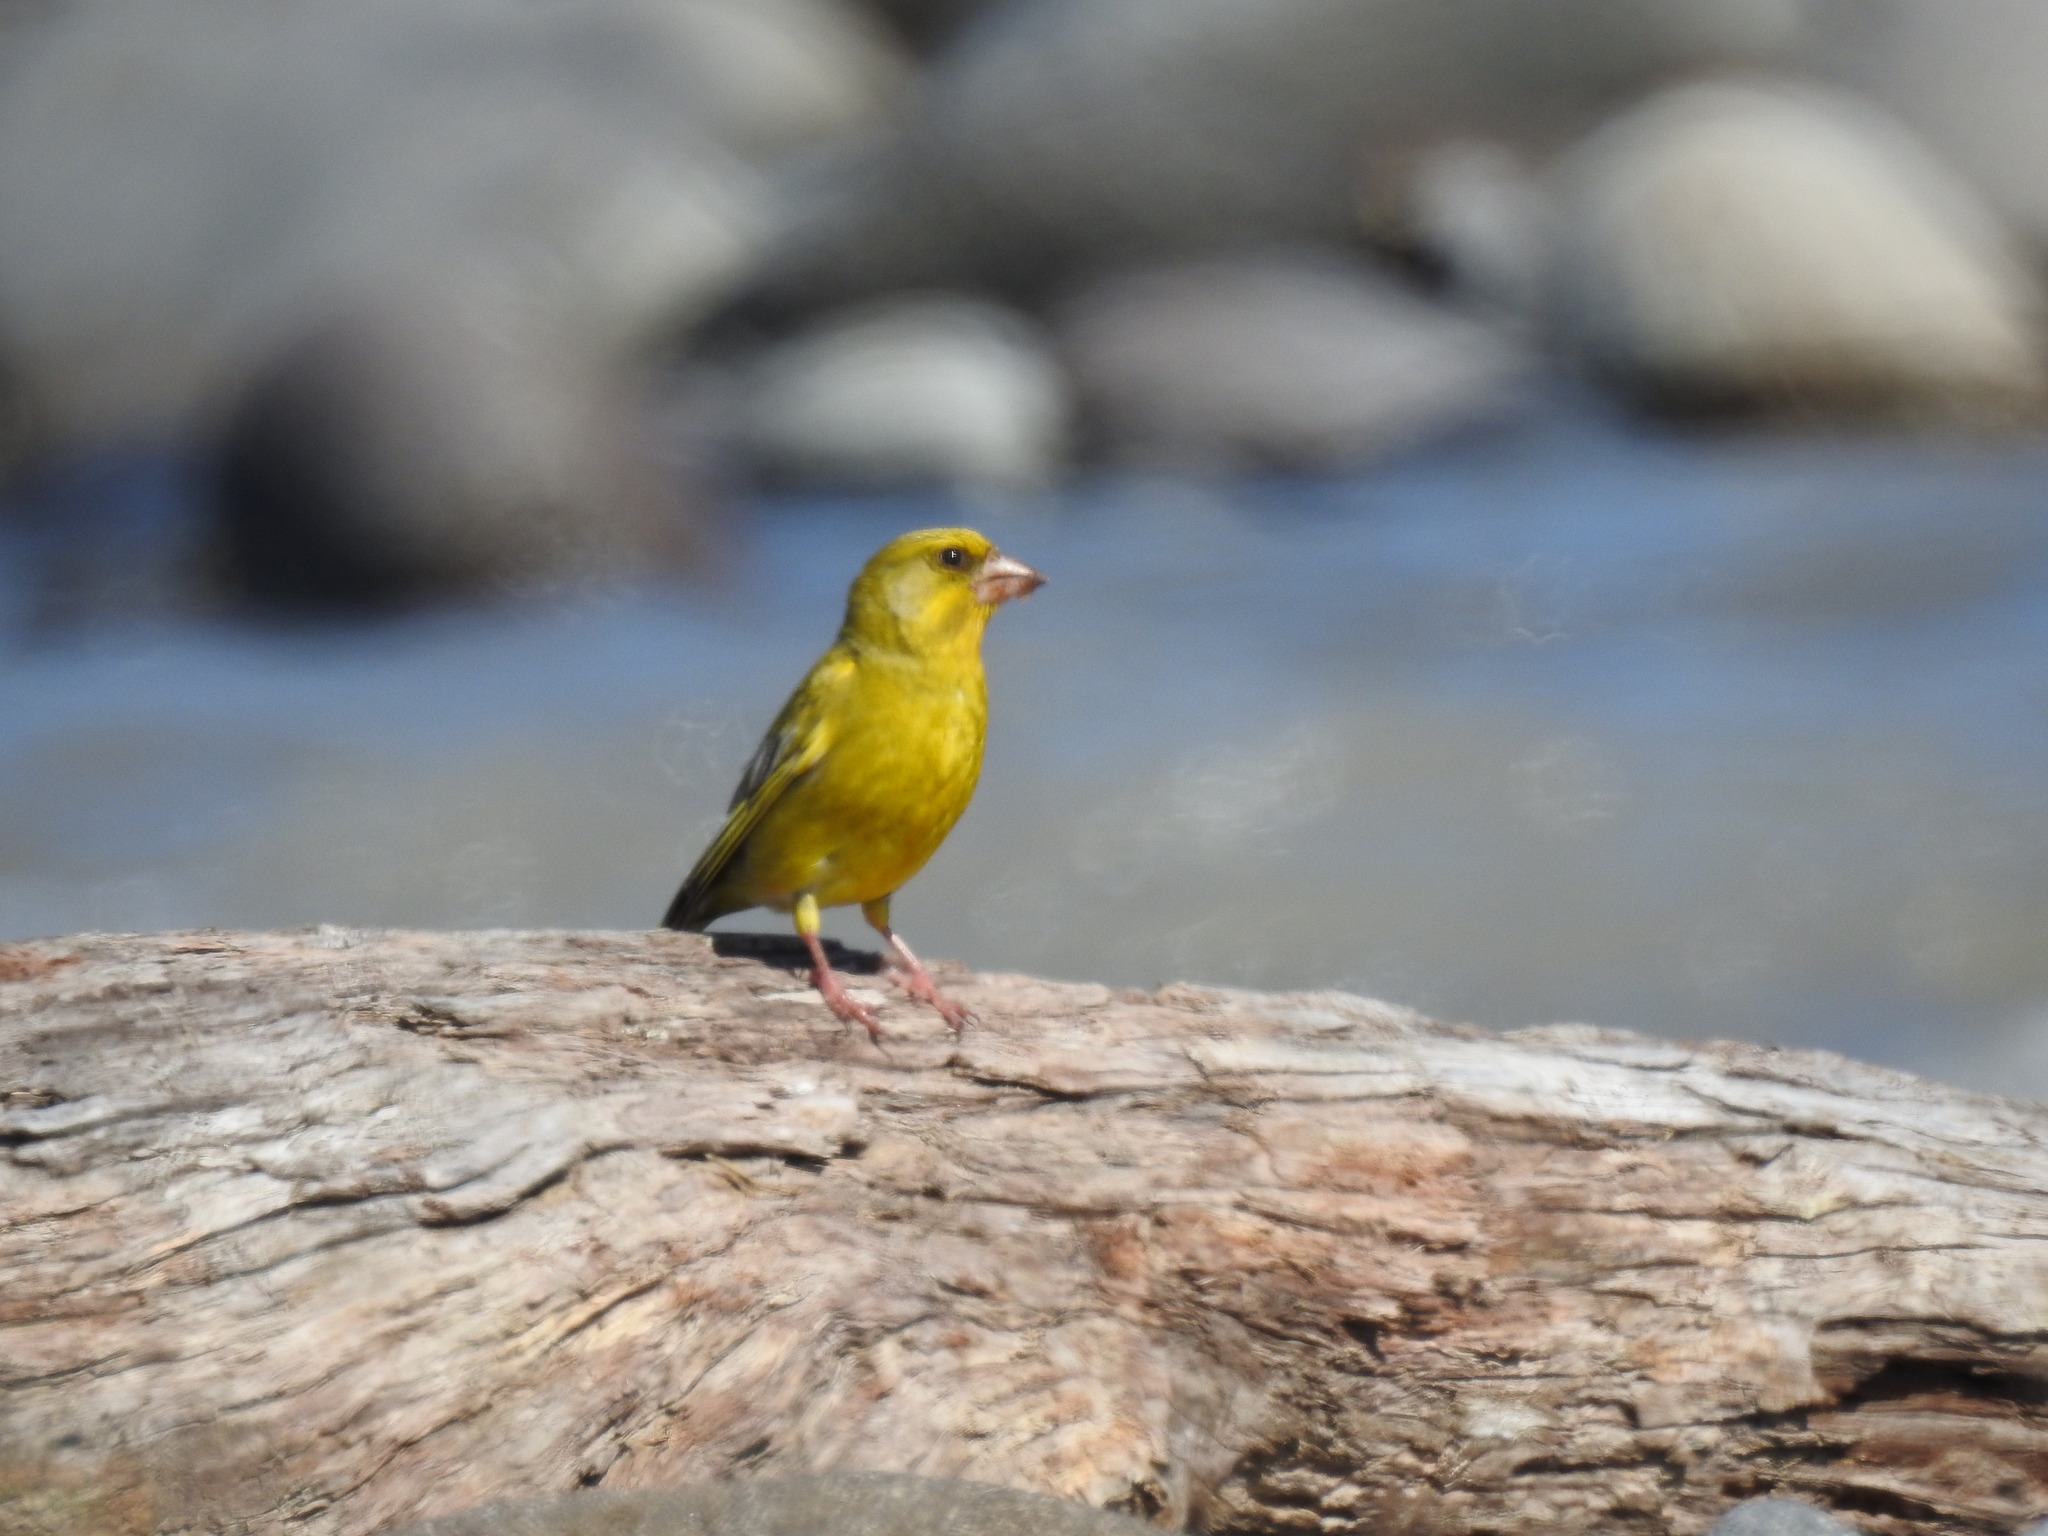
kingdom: Plantae
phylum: Tracheophyta
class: Liliopsida
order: Poales
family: Poaceae
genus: Chloris
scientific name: Chloris chloris
